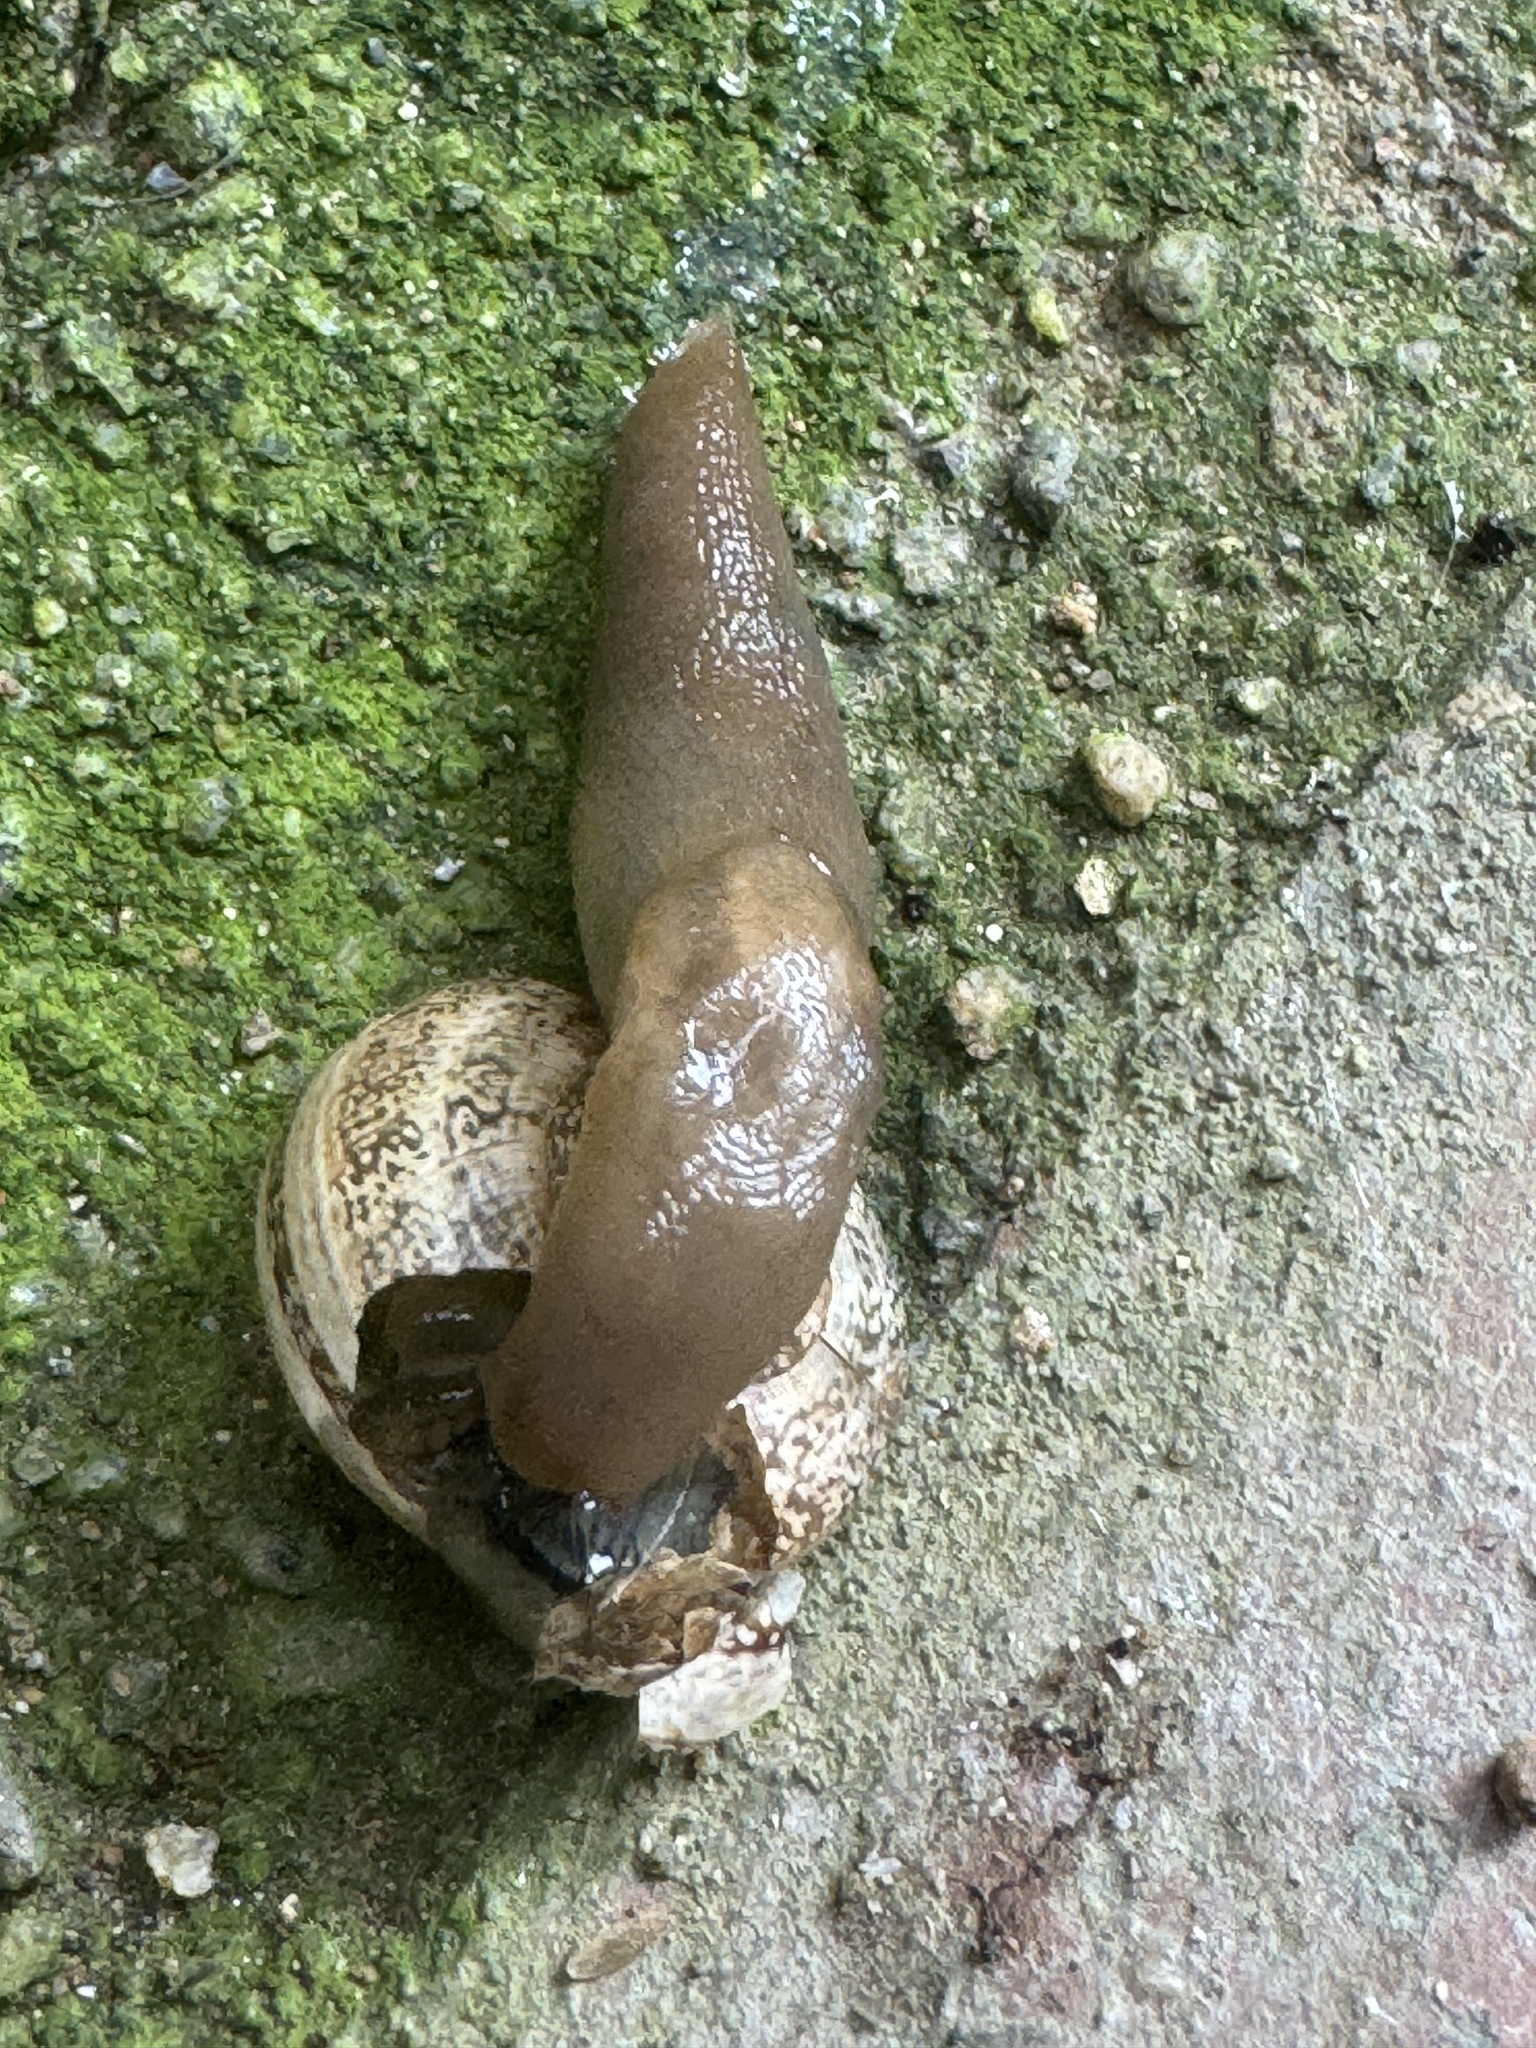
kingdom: Animalia
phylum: Mollusca
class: Gastropoda
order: Stylommatophora
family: Agriolimacidae
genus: Deroceras
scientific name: Deroceras laeve
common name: Marsh slug
